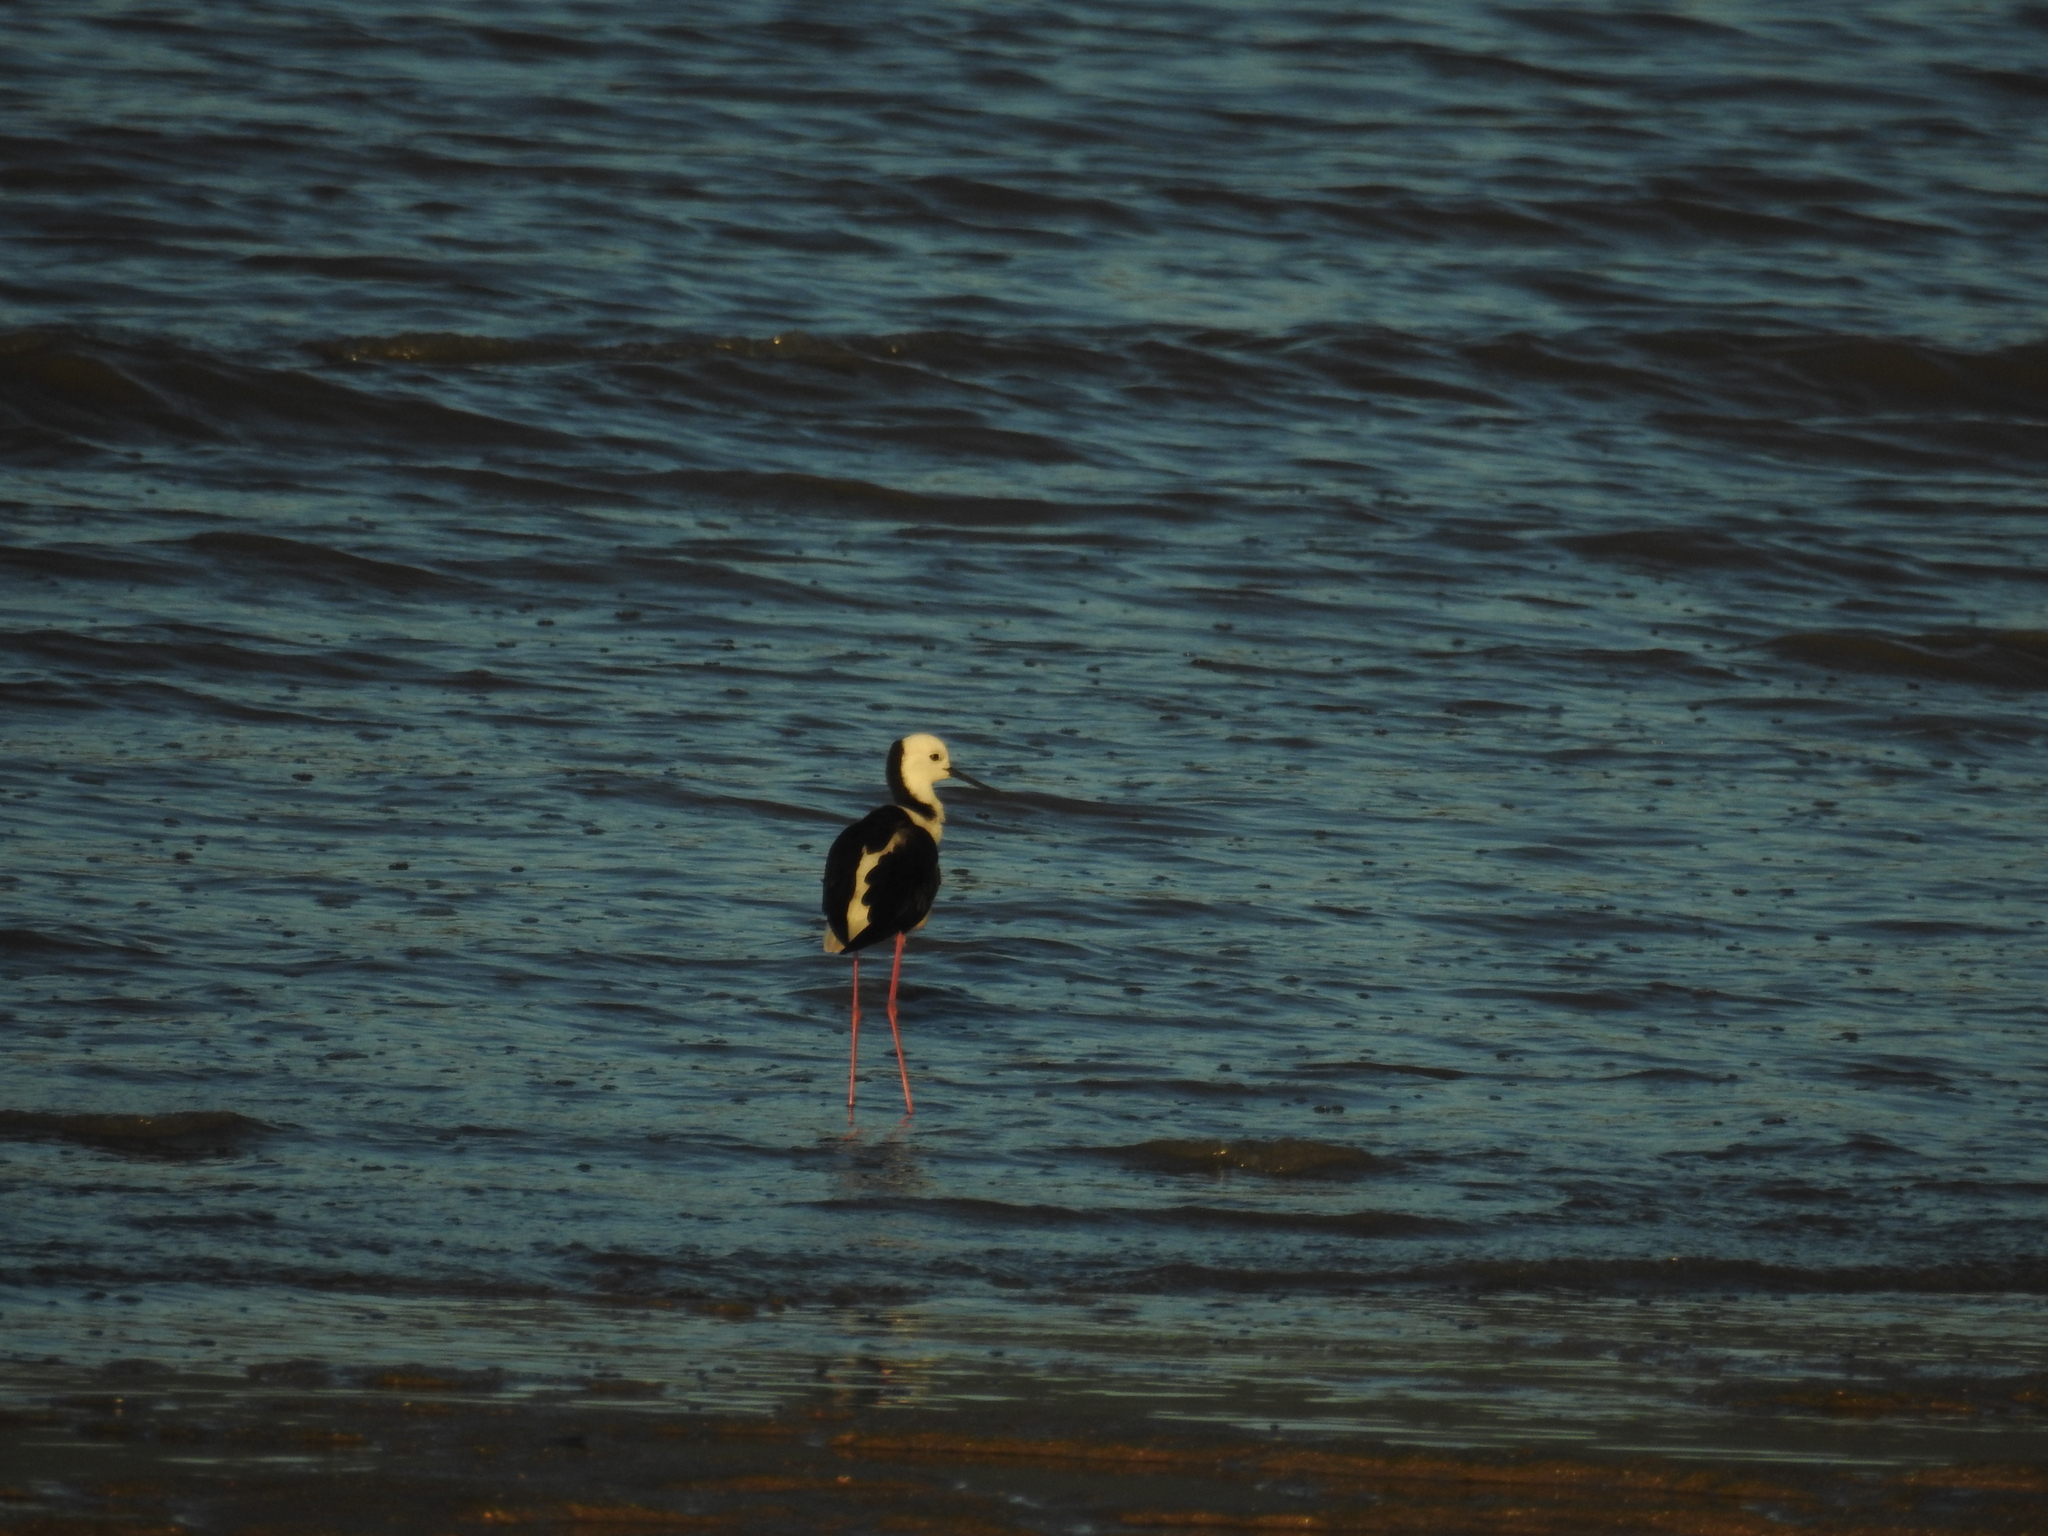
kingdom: Animalia
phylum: Chordata
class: Aves
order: Charadriiformes
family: Recurvirostridae
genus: Himantopus
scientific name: Himantopus leucocephalus
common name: White-headed stilt
